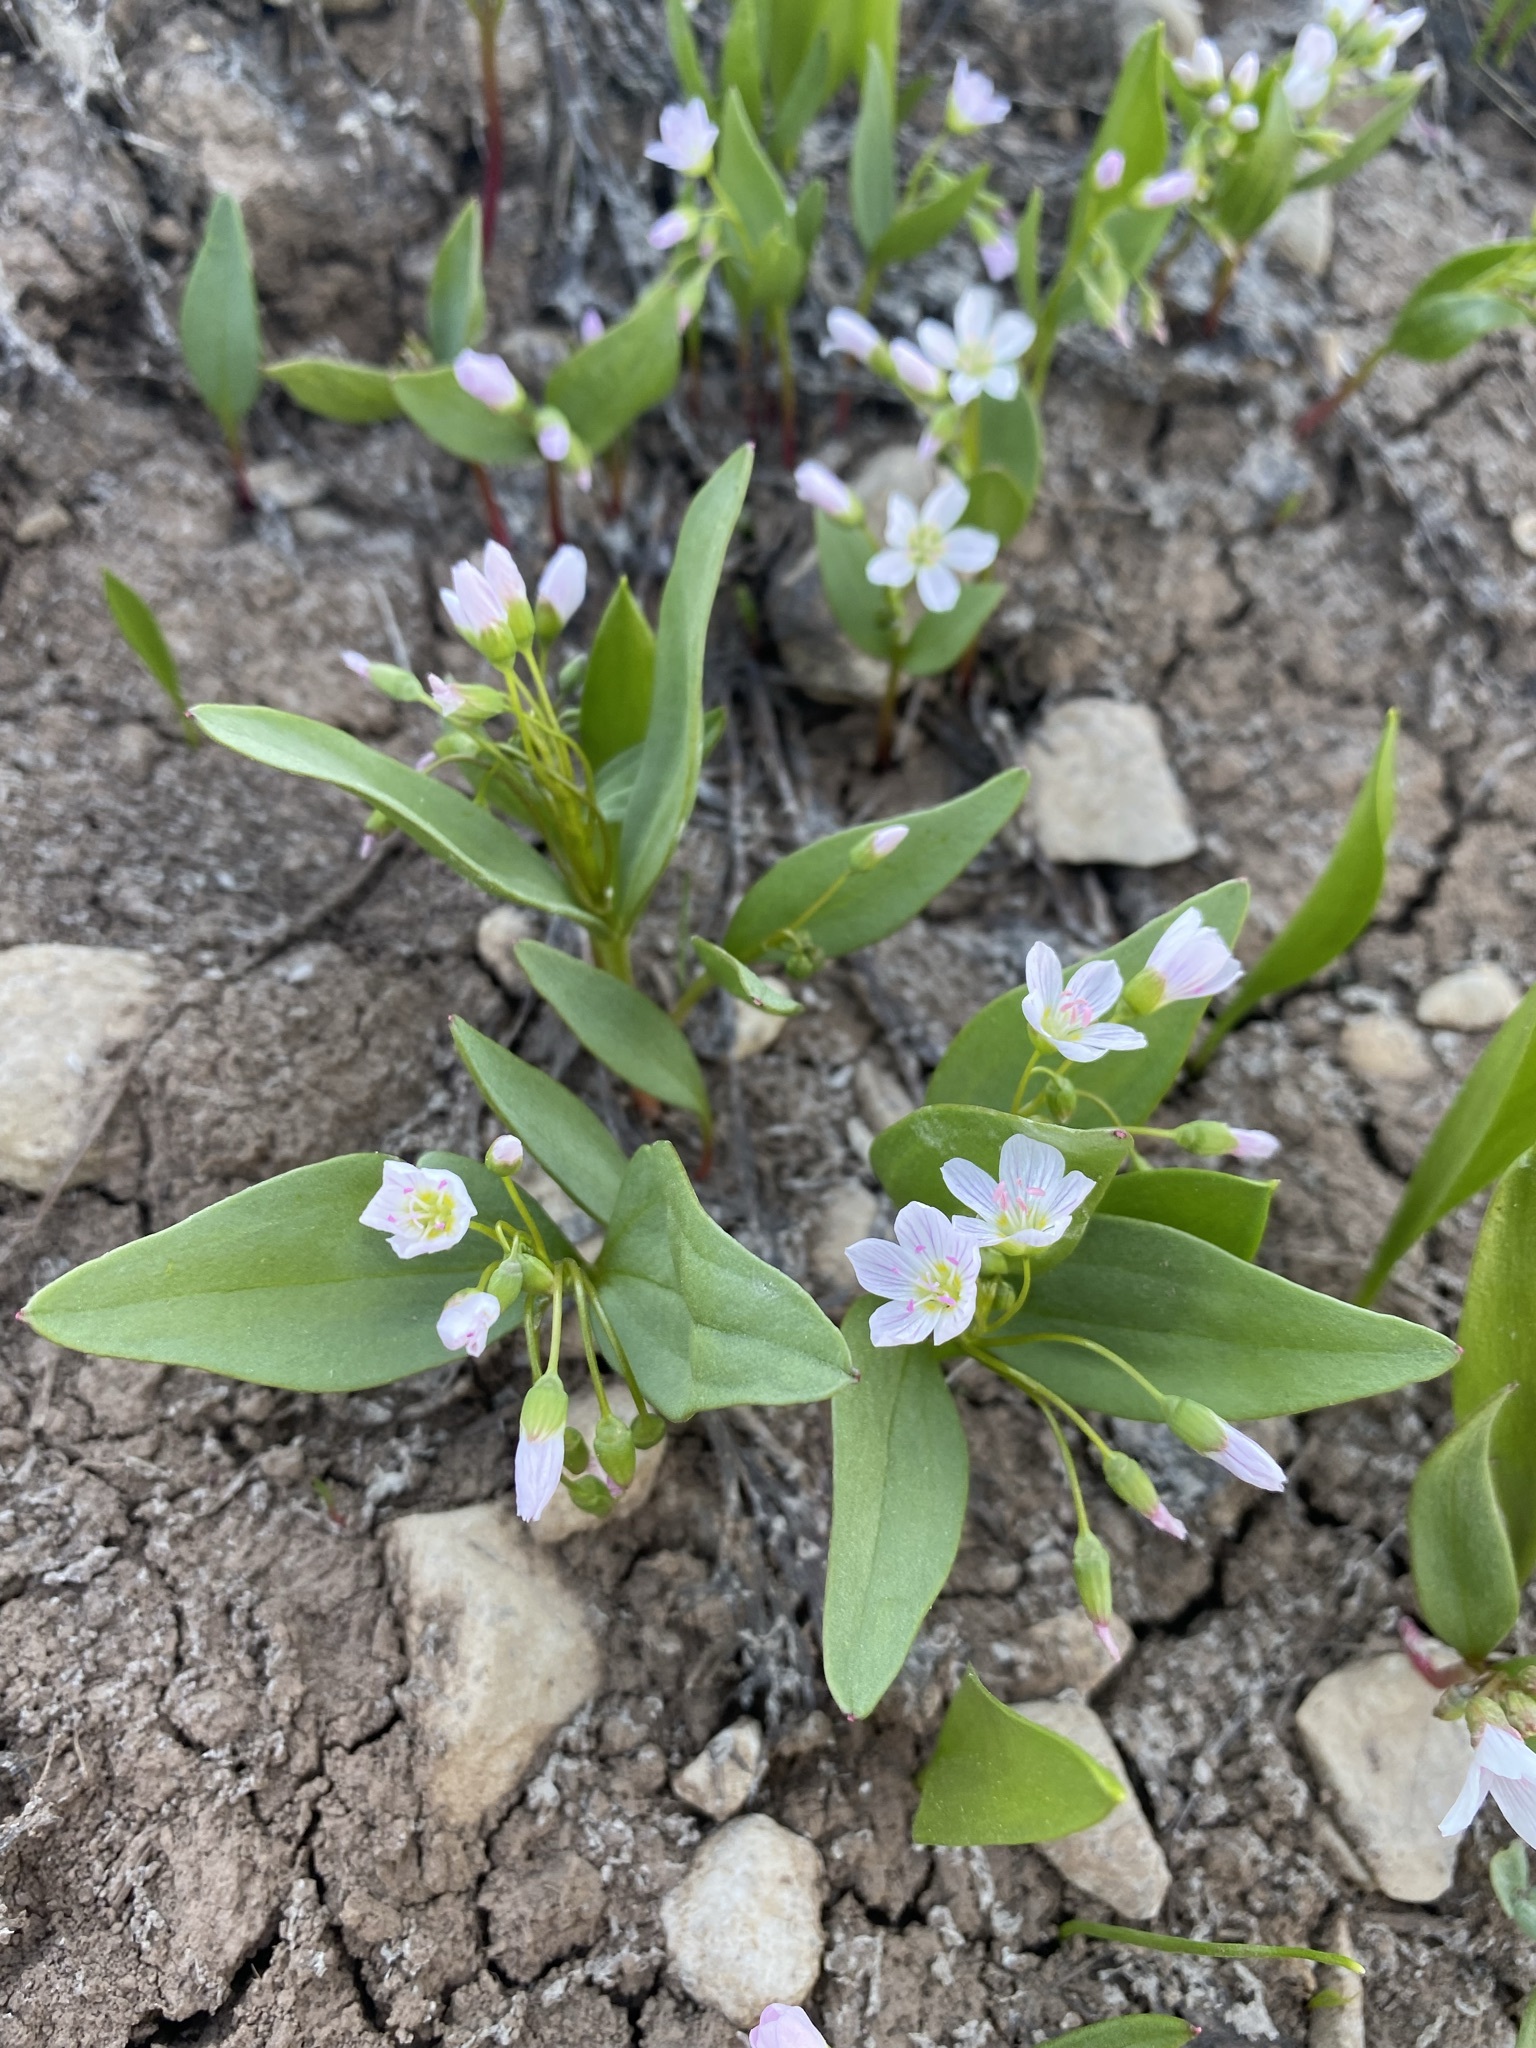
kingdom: Plantae
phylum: Tracheophyta
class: Magnoliopsida
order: Caryophyllales
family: Montiaceae
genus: Claytonia
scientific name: Claytonia lanceolata
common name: Western spring-beauty
